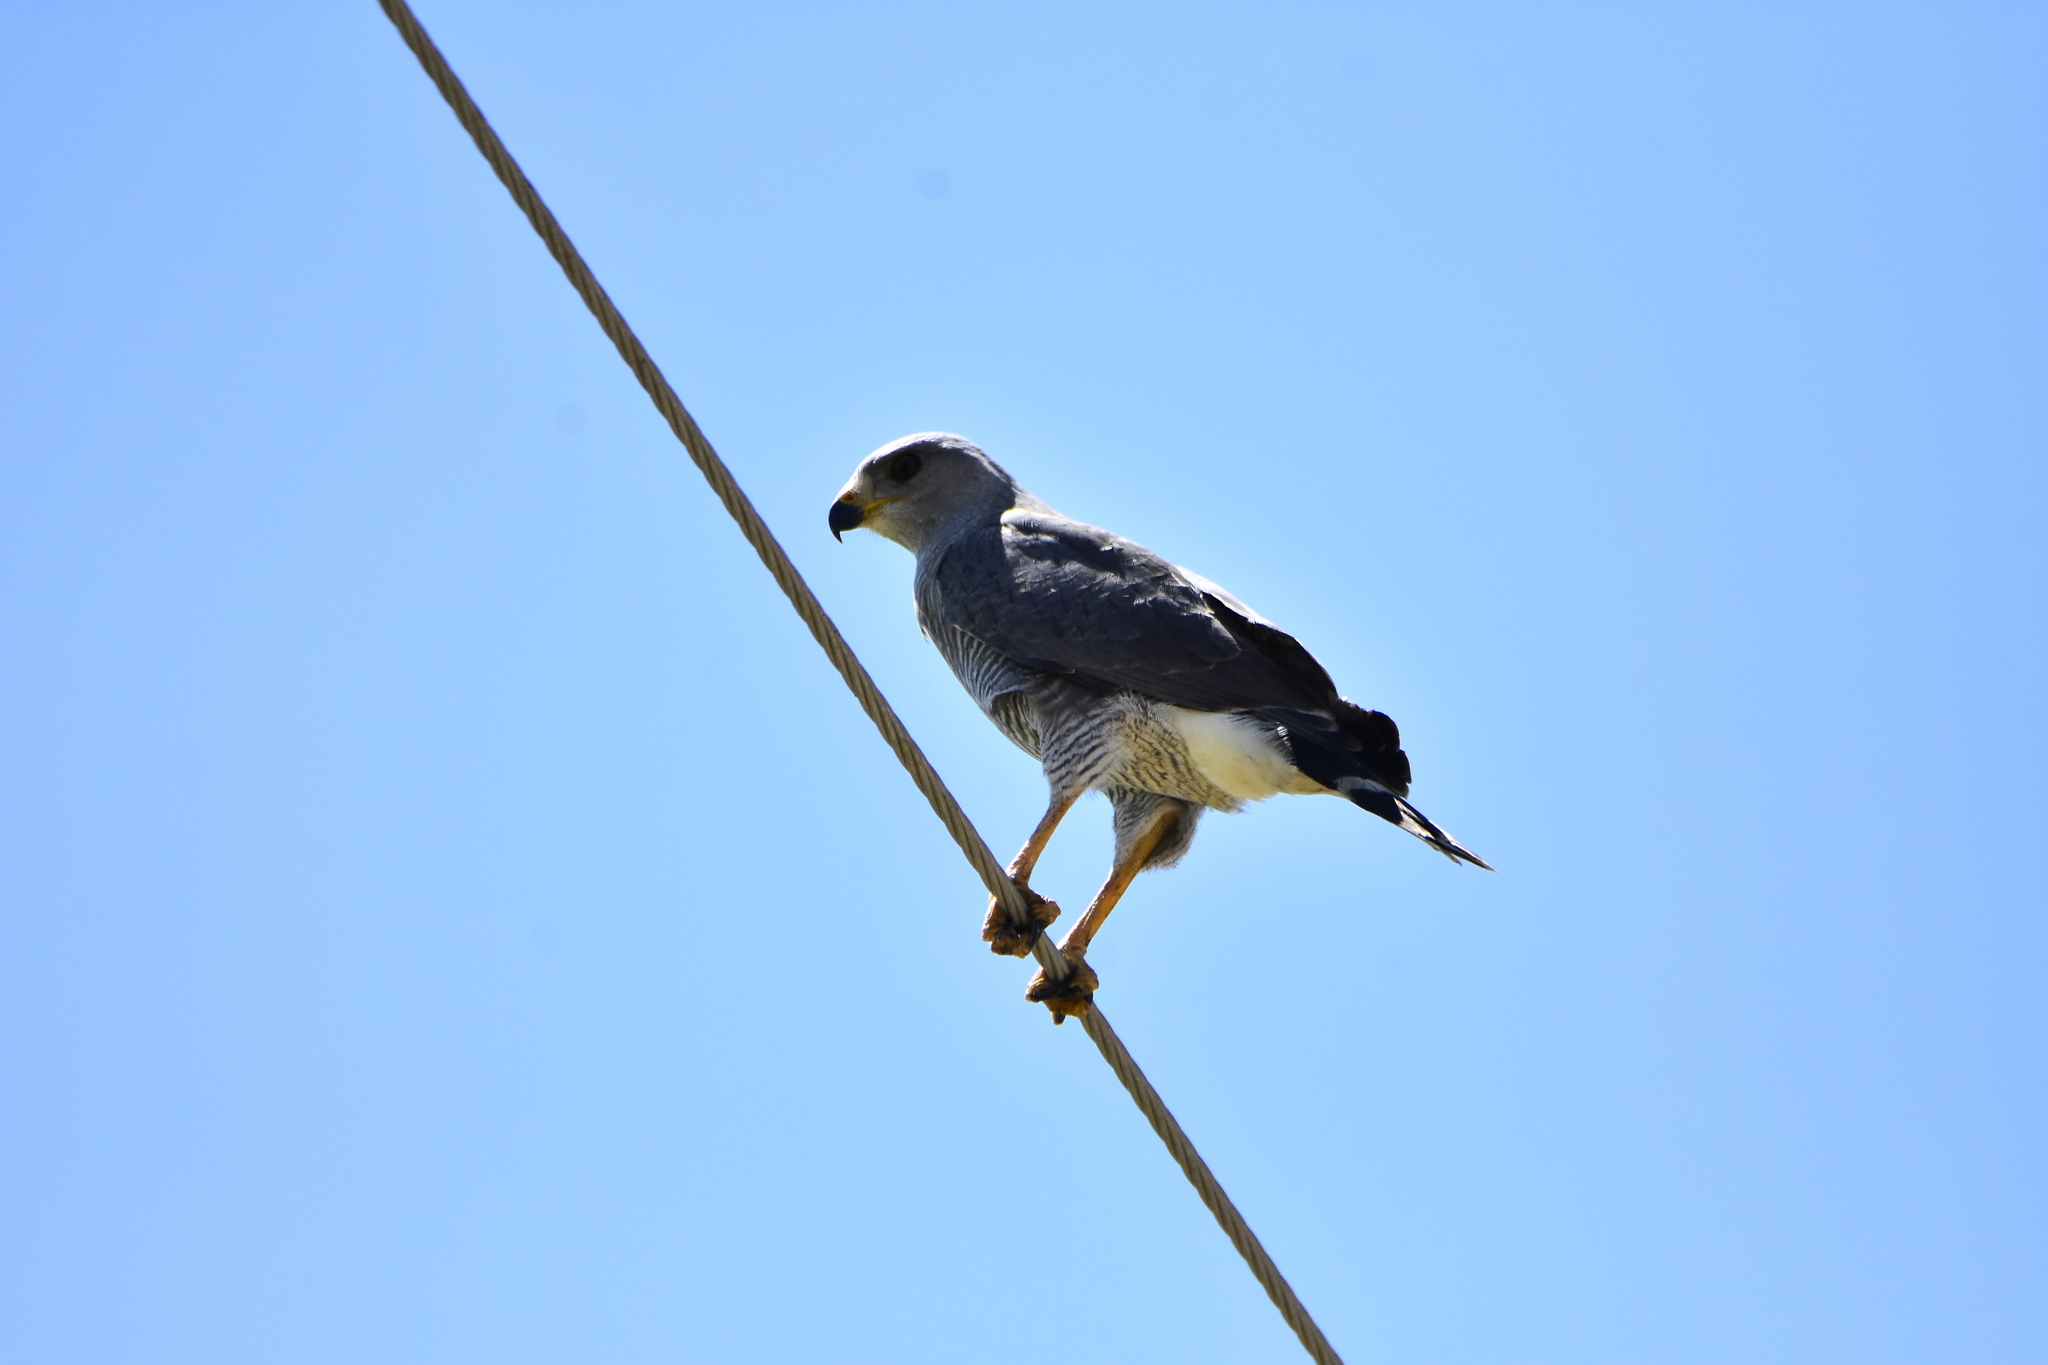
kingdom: Animalia
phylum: Chordata
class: Aves
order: Accipitriformes
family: Accipitridae
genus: Buteo
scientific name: Buteo nitidus
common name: Grey-lined hawk
